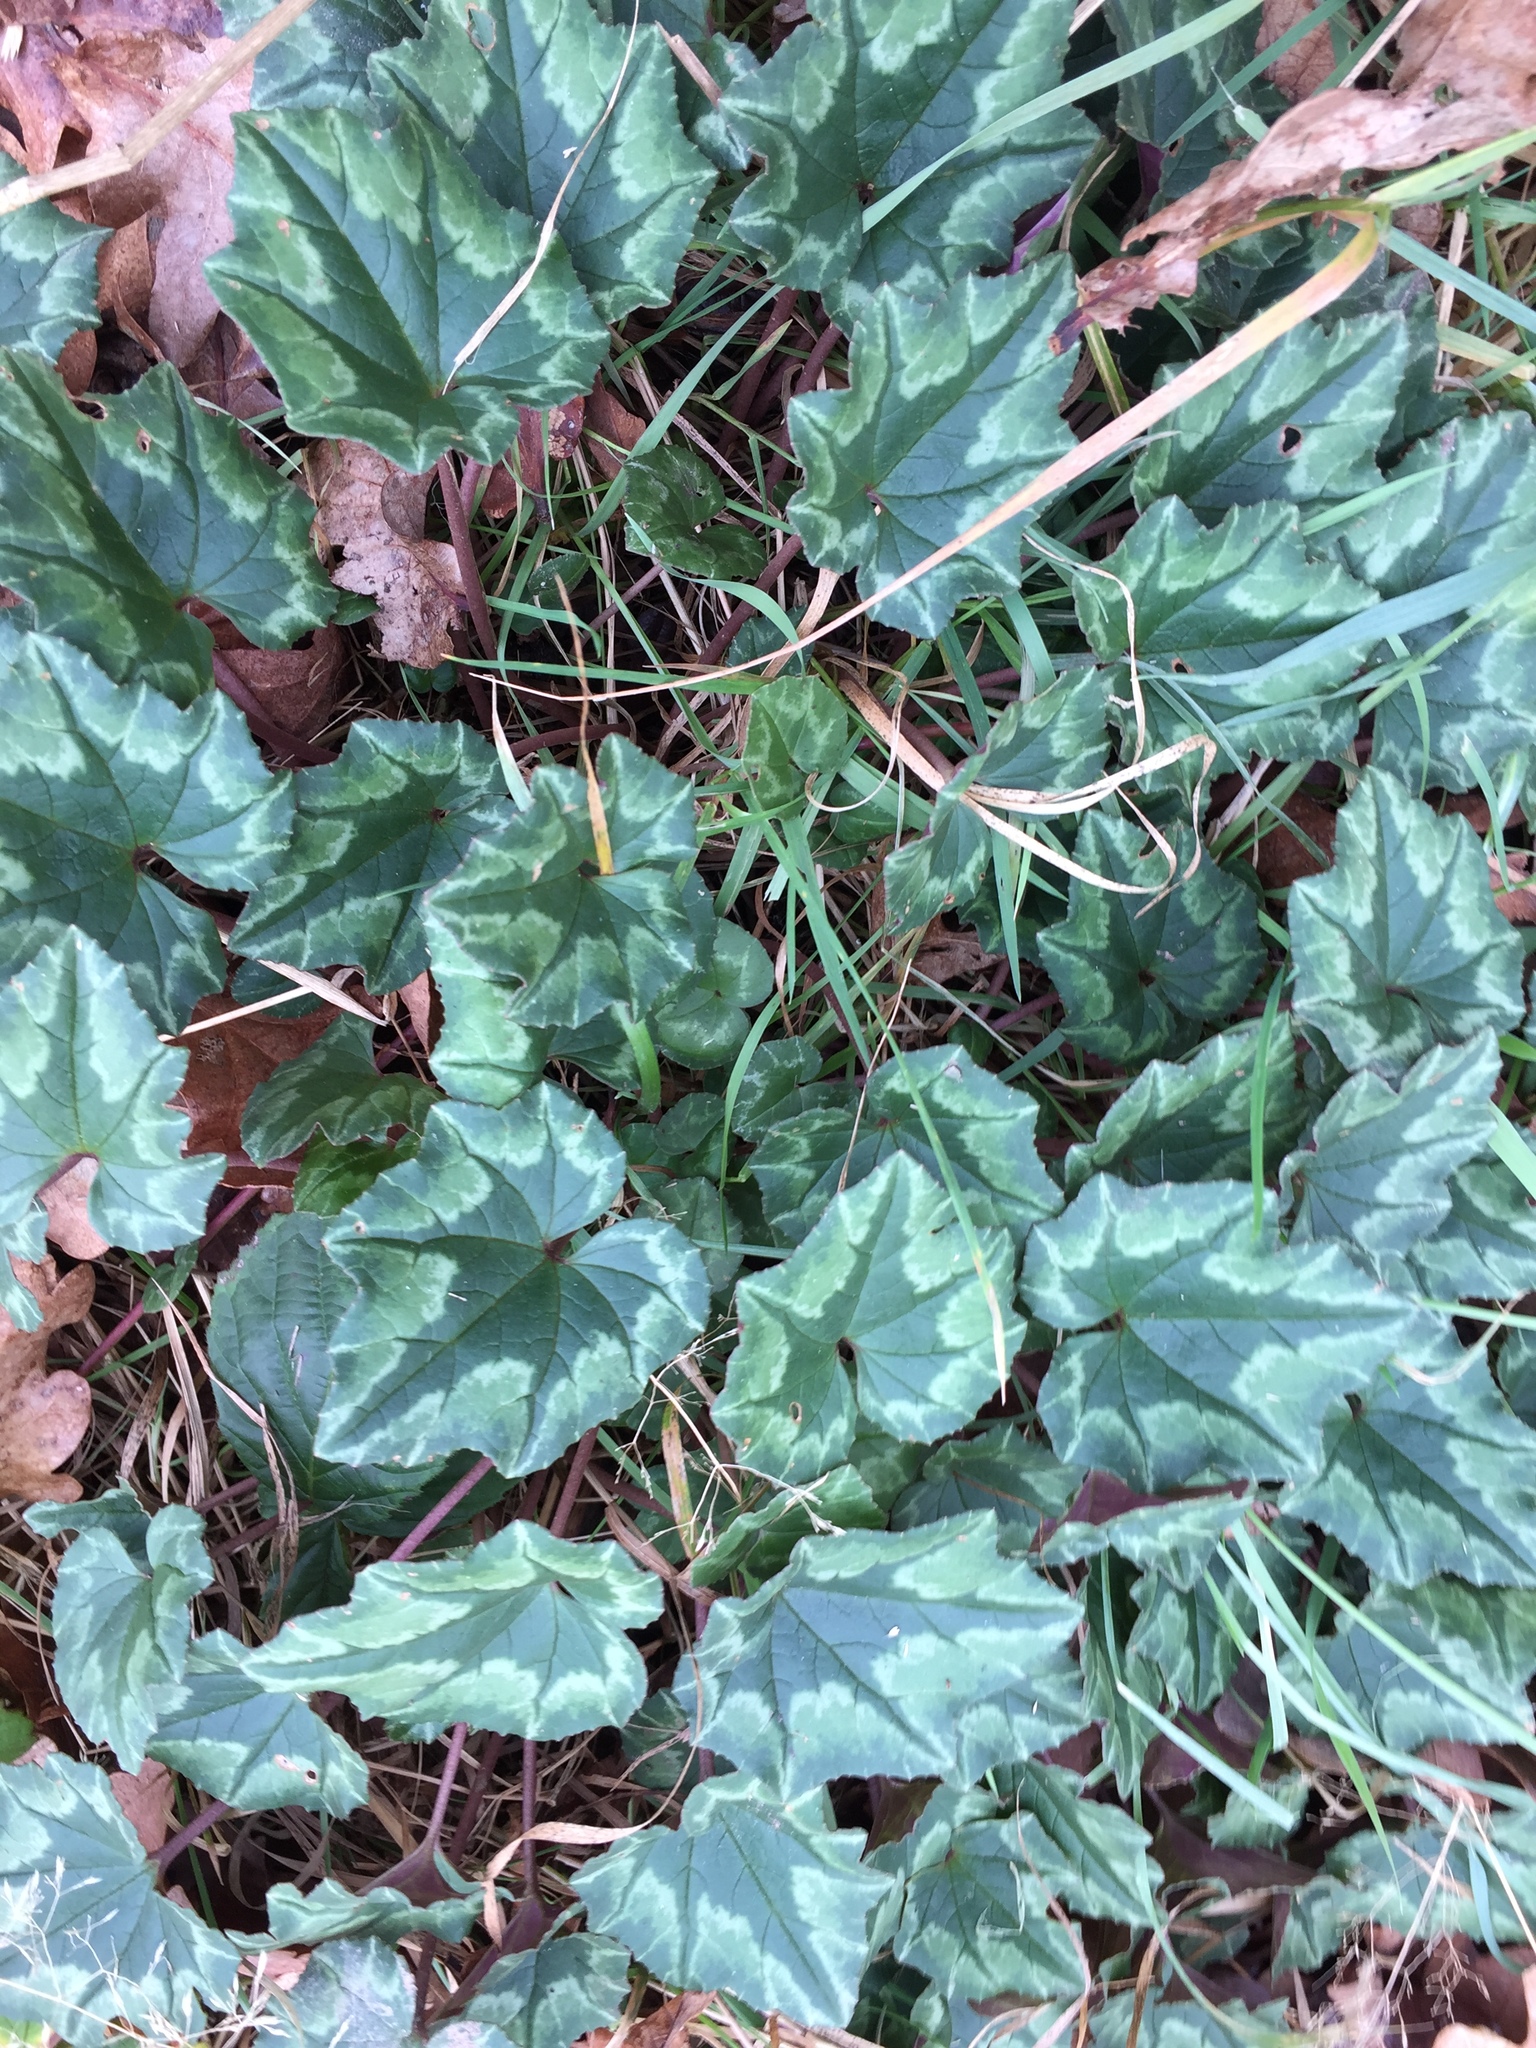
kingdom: Plantae
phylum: Tracheophyta
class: Magnoliopsida
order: Ericales
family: Primulaceae
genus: Cyclamen
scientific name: Cyclamen hederifolium
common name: Sowbread
